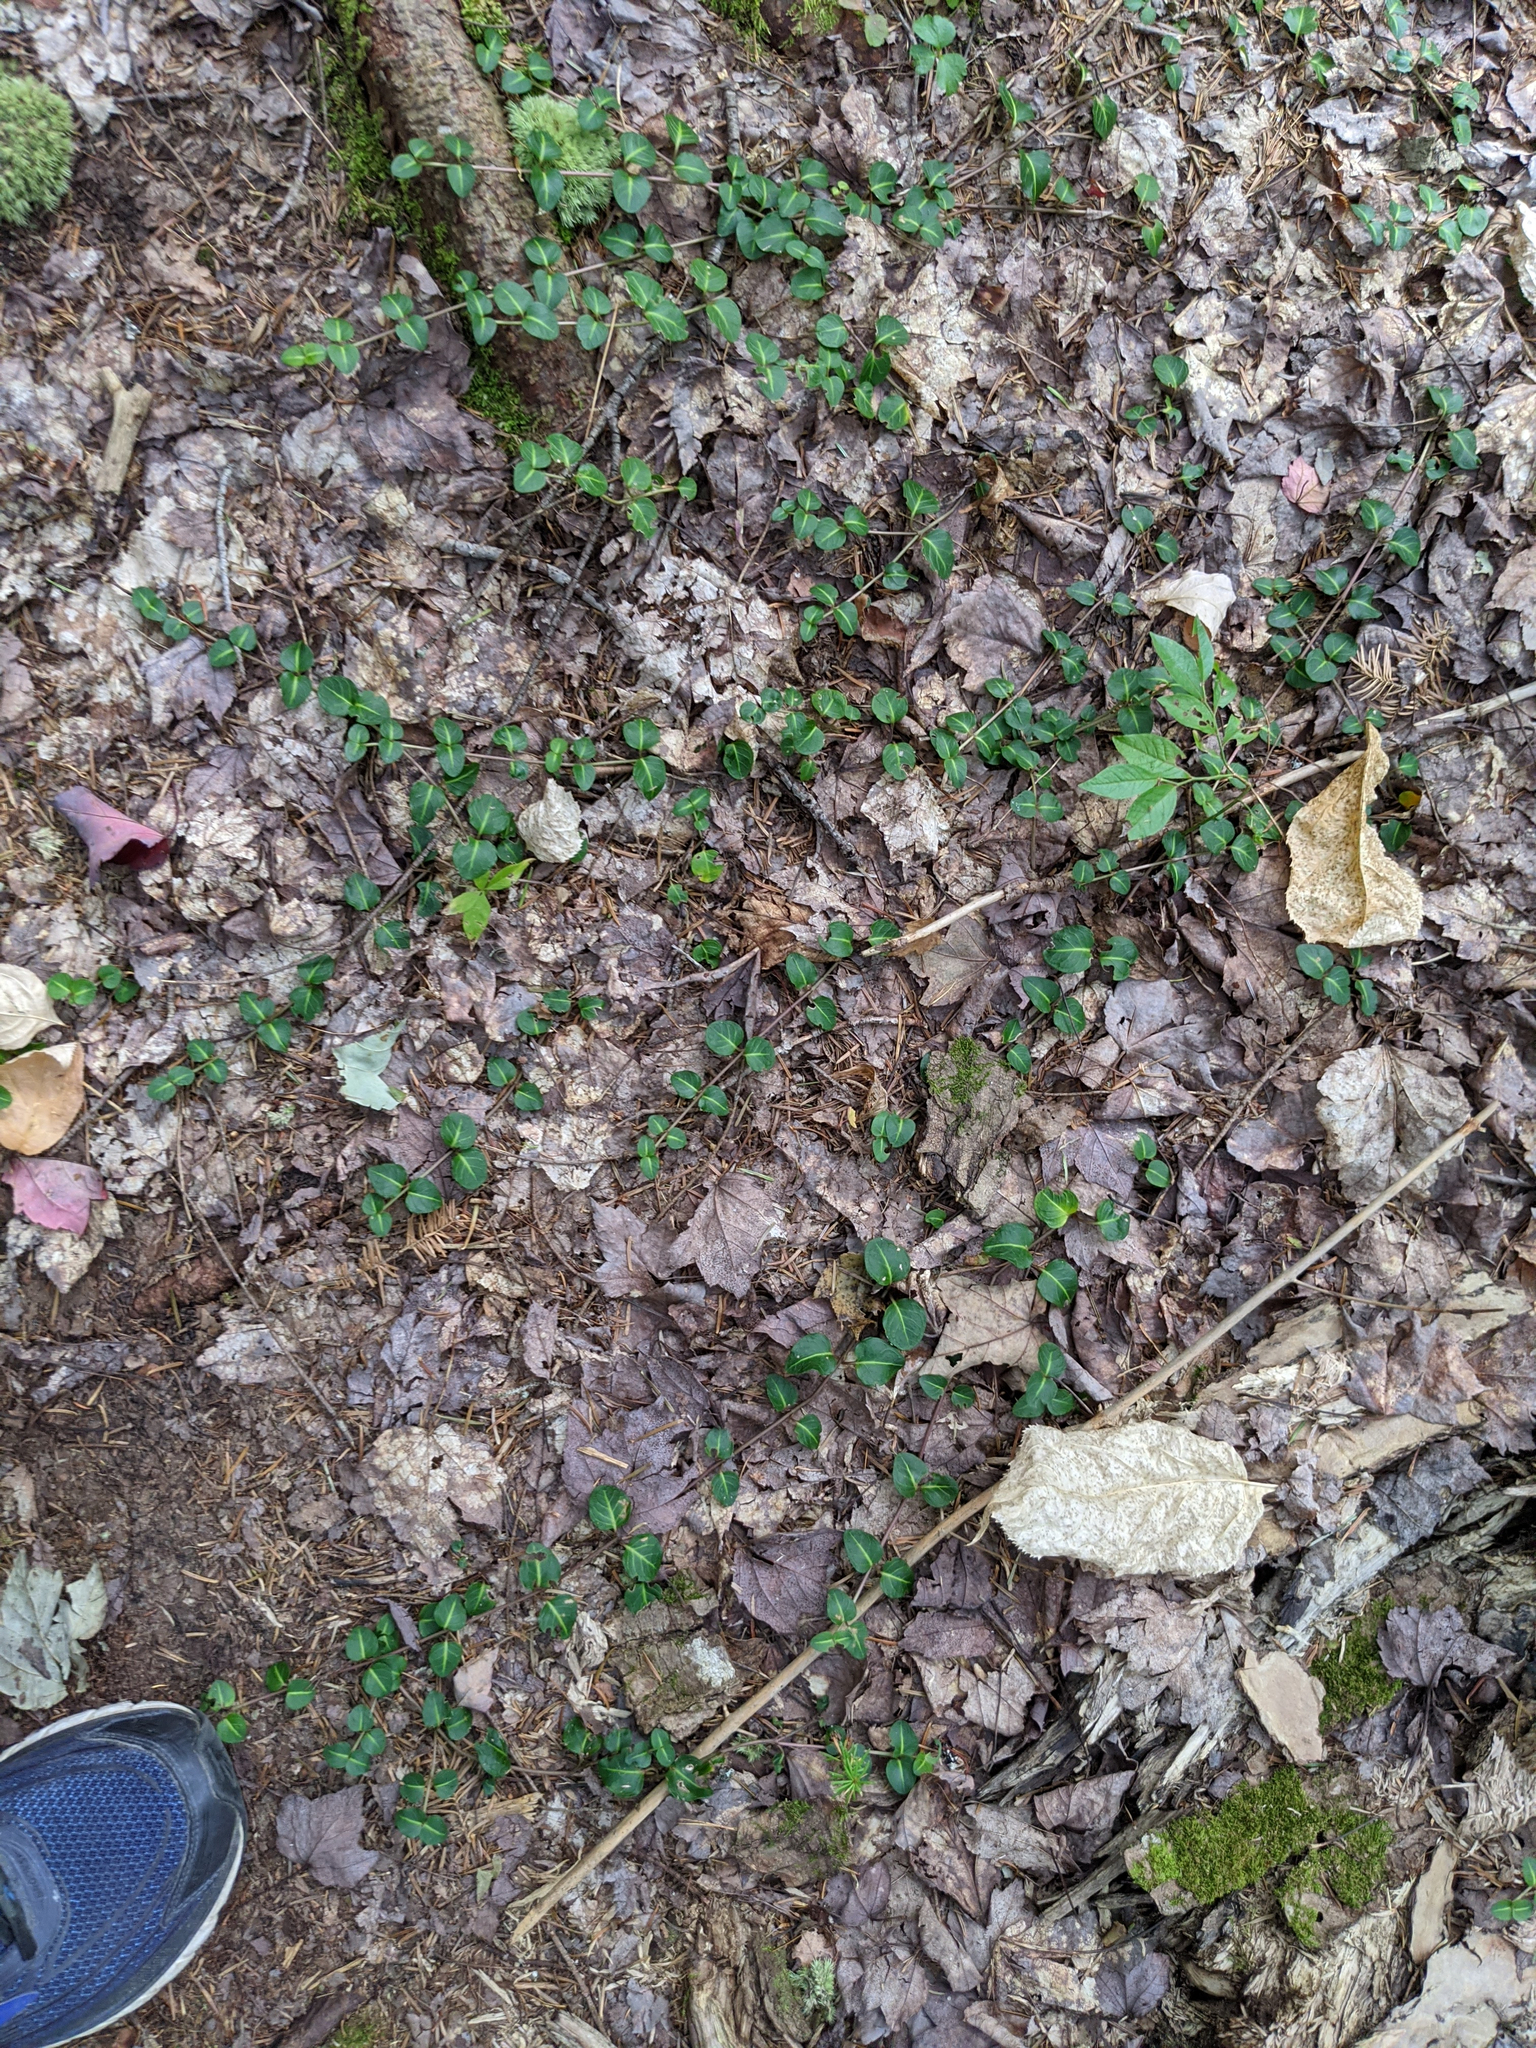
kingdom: Plantae
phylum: Tracheophyta
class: Magnoliopsida
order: Gentianales
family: Rubiaceae
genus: Mitchella
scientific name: Mitchella repens
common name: Partridge-berry
